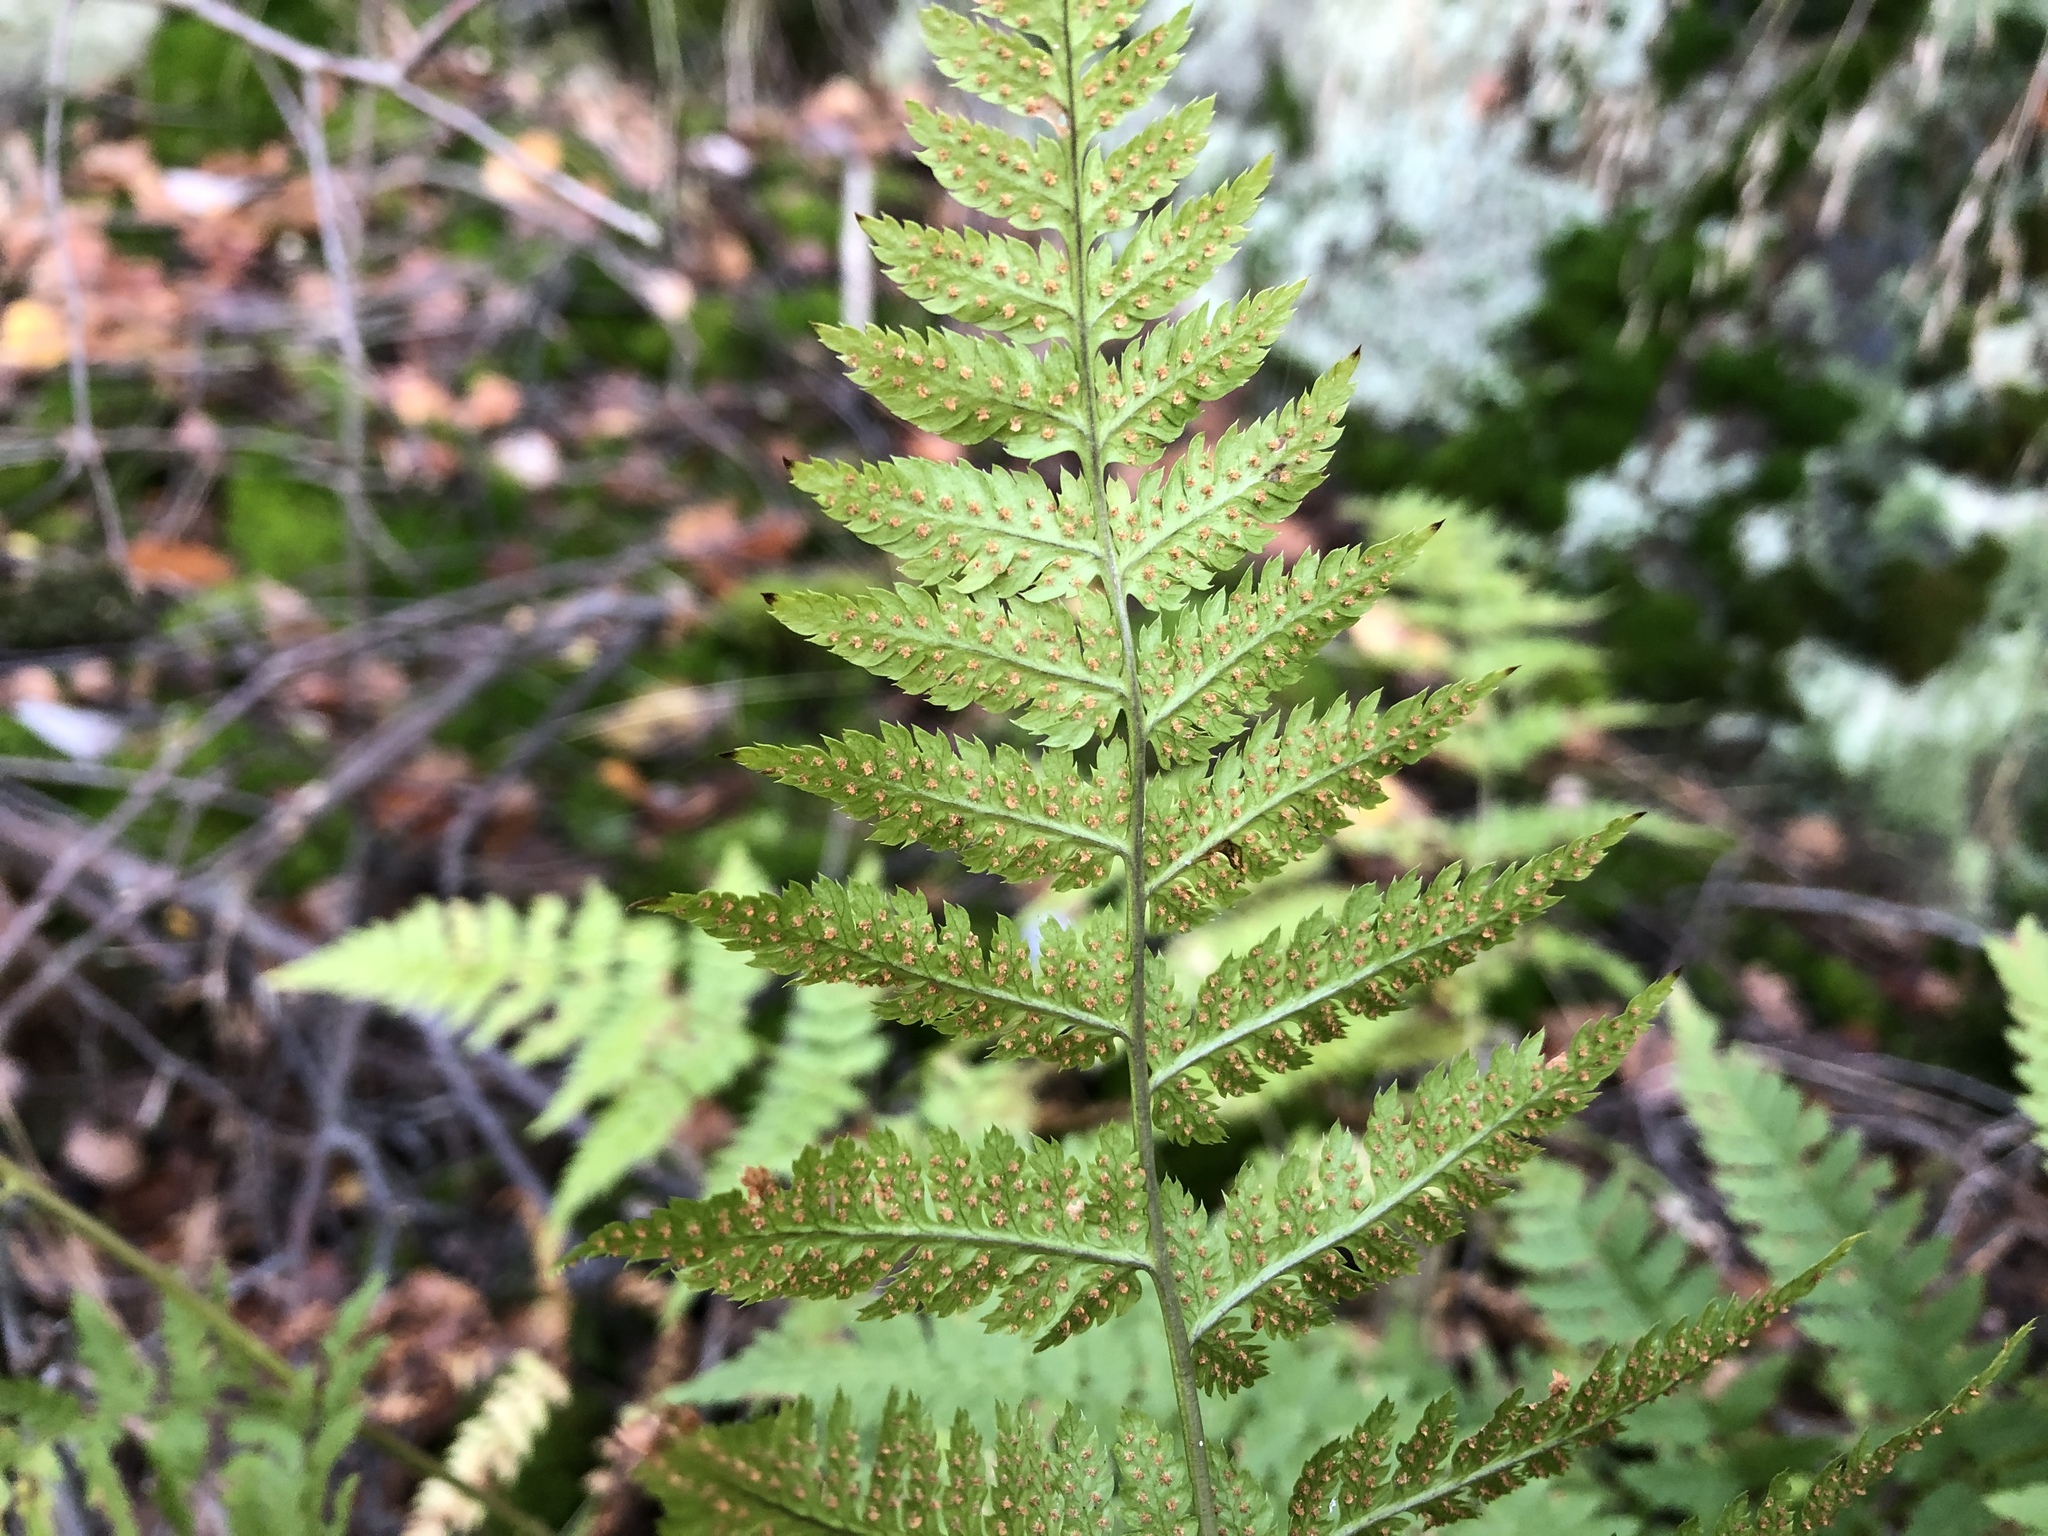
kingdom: Plantae
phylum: Tracheophyta
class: Polypodiopsida
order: Polypodiales
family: Dryopteridaceae
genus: Dryopteris
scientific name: Dryopteris carthusiana
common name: Narrow buckler-fern
